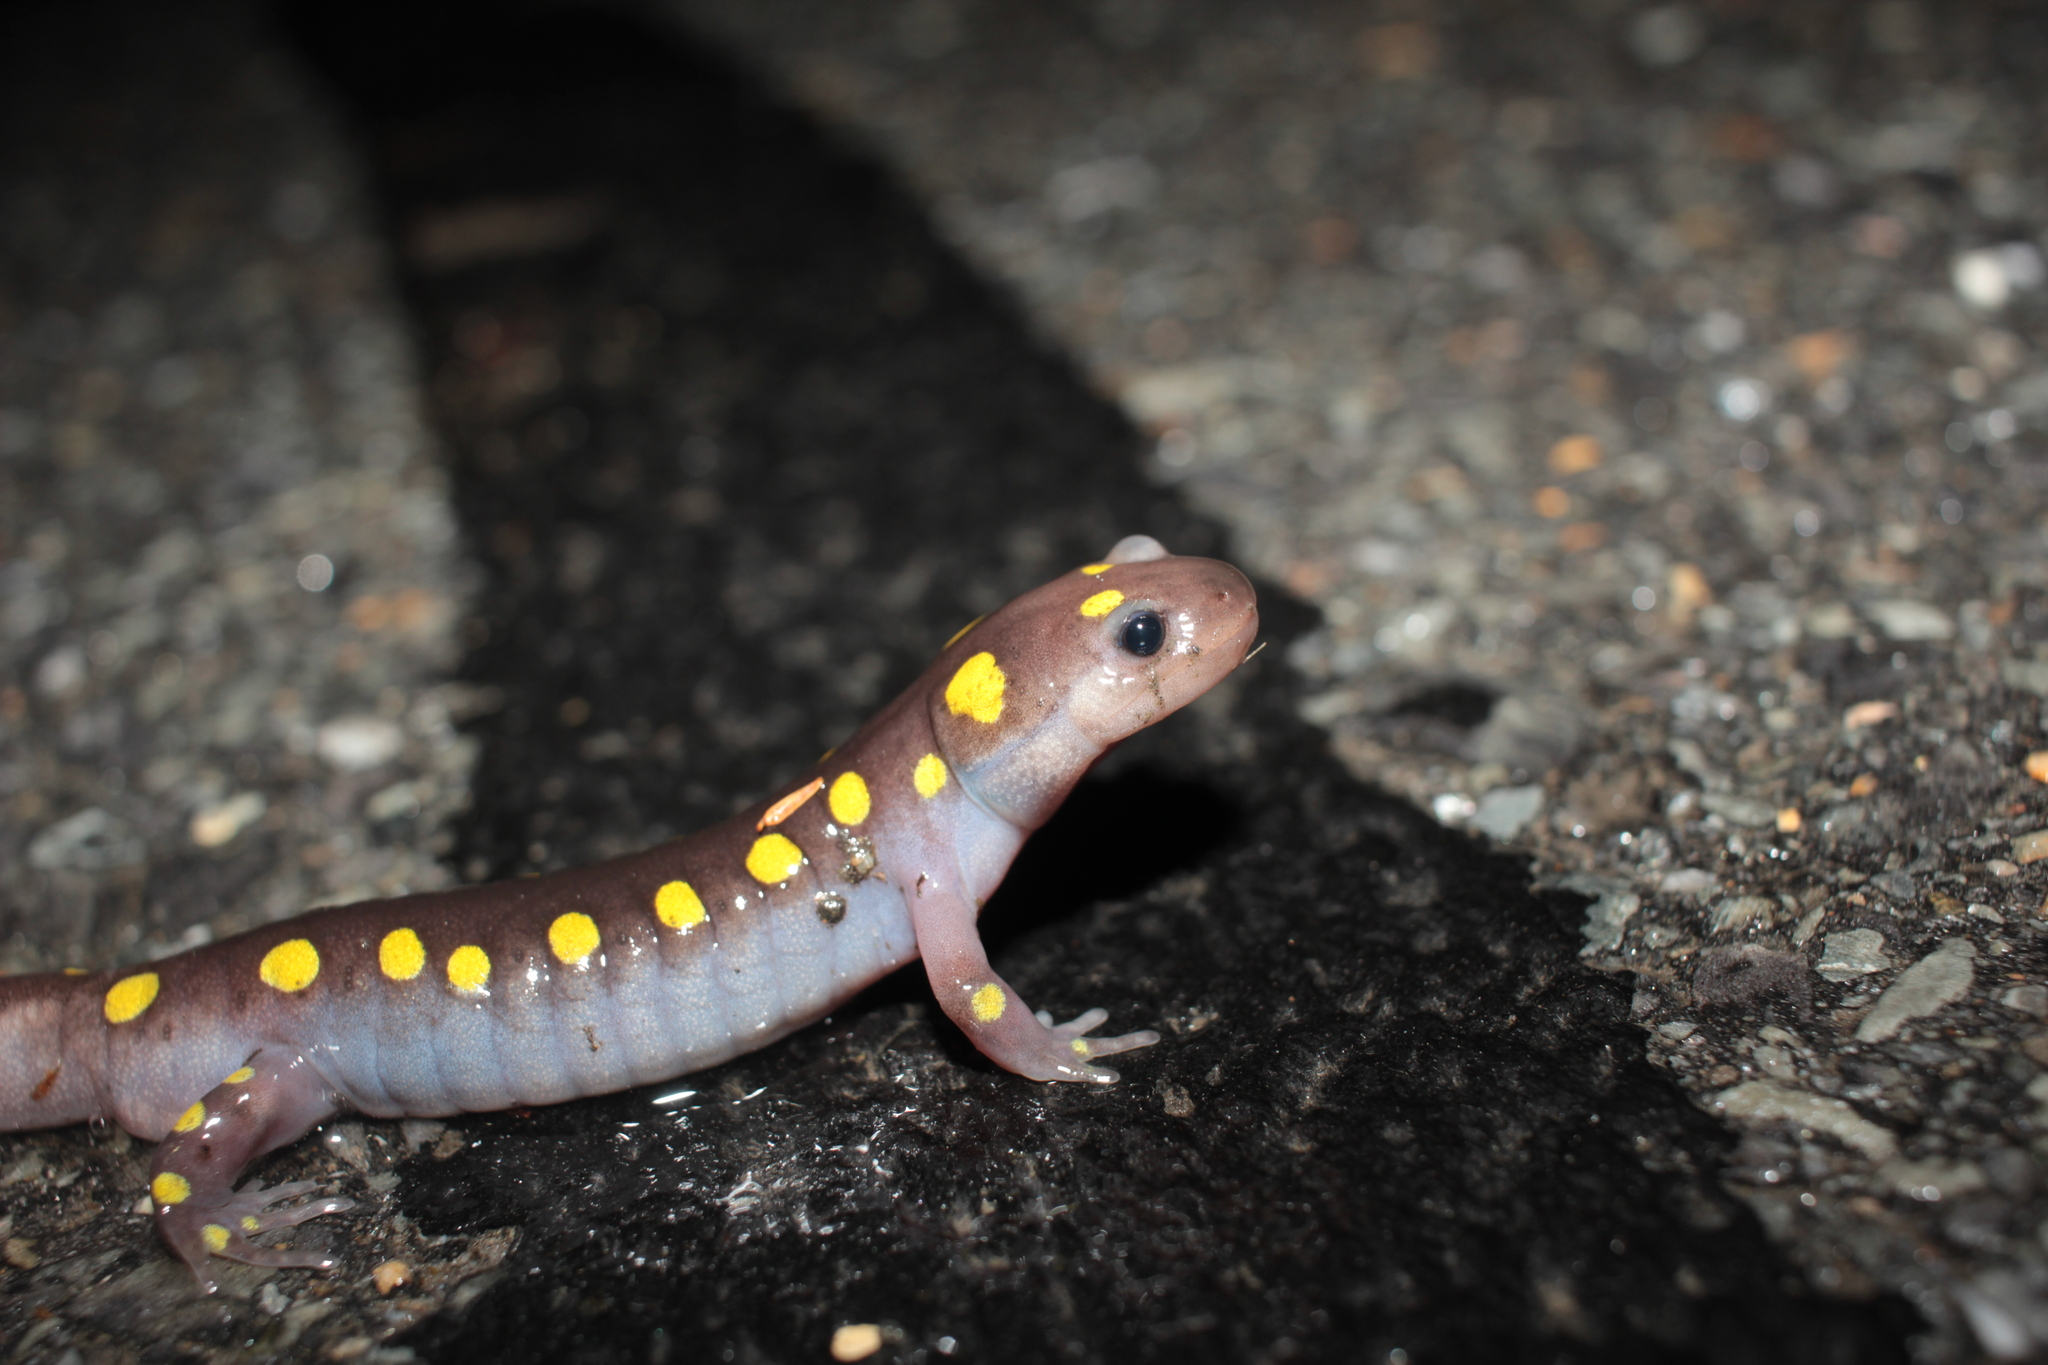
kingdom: Animalia
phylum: Chordata
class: Amphibia
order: Caudata
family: Ambystomatidae
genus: Ambystoma
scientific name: Ambystoma maculatum
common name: Spotted salamander
